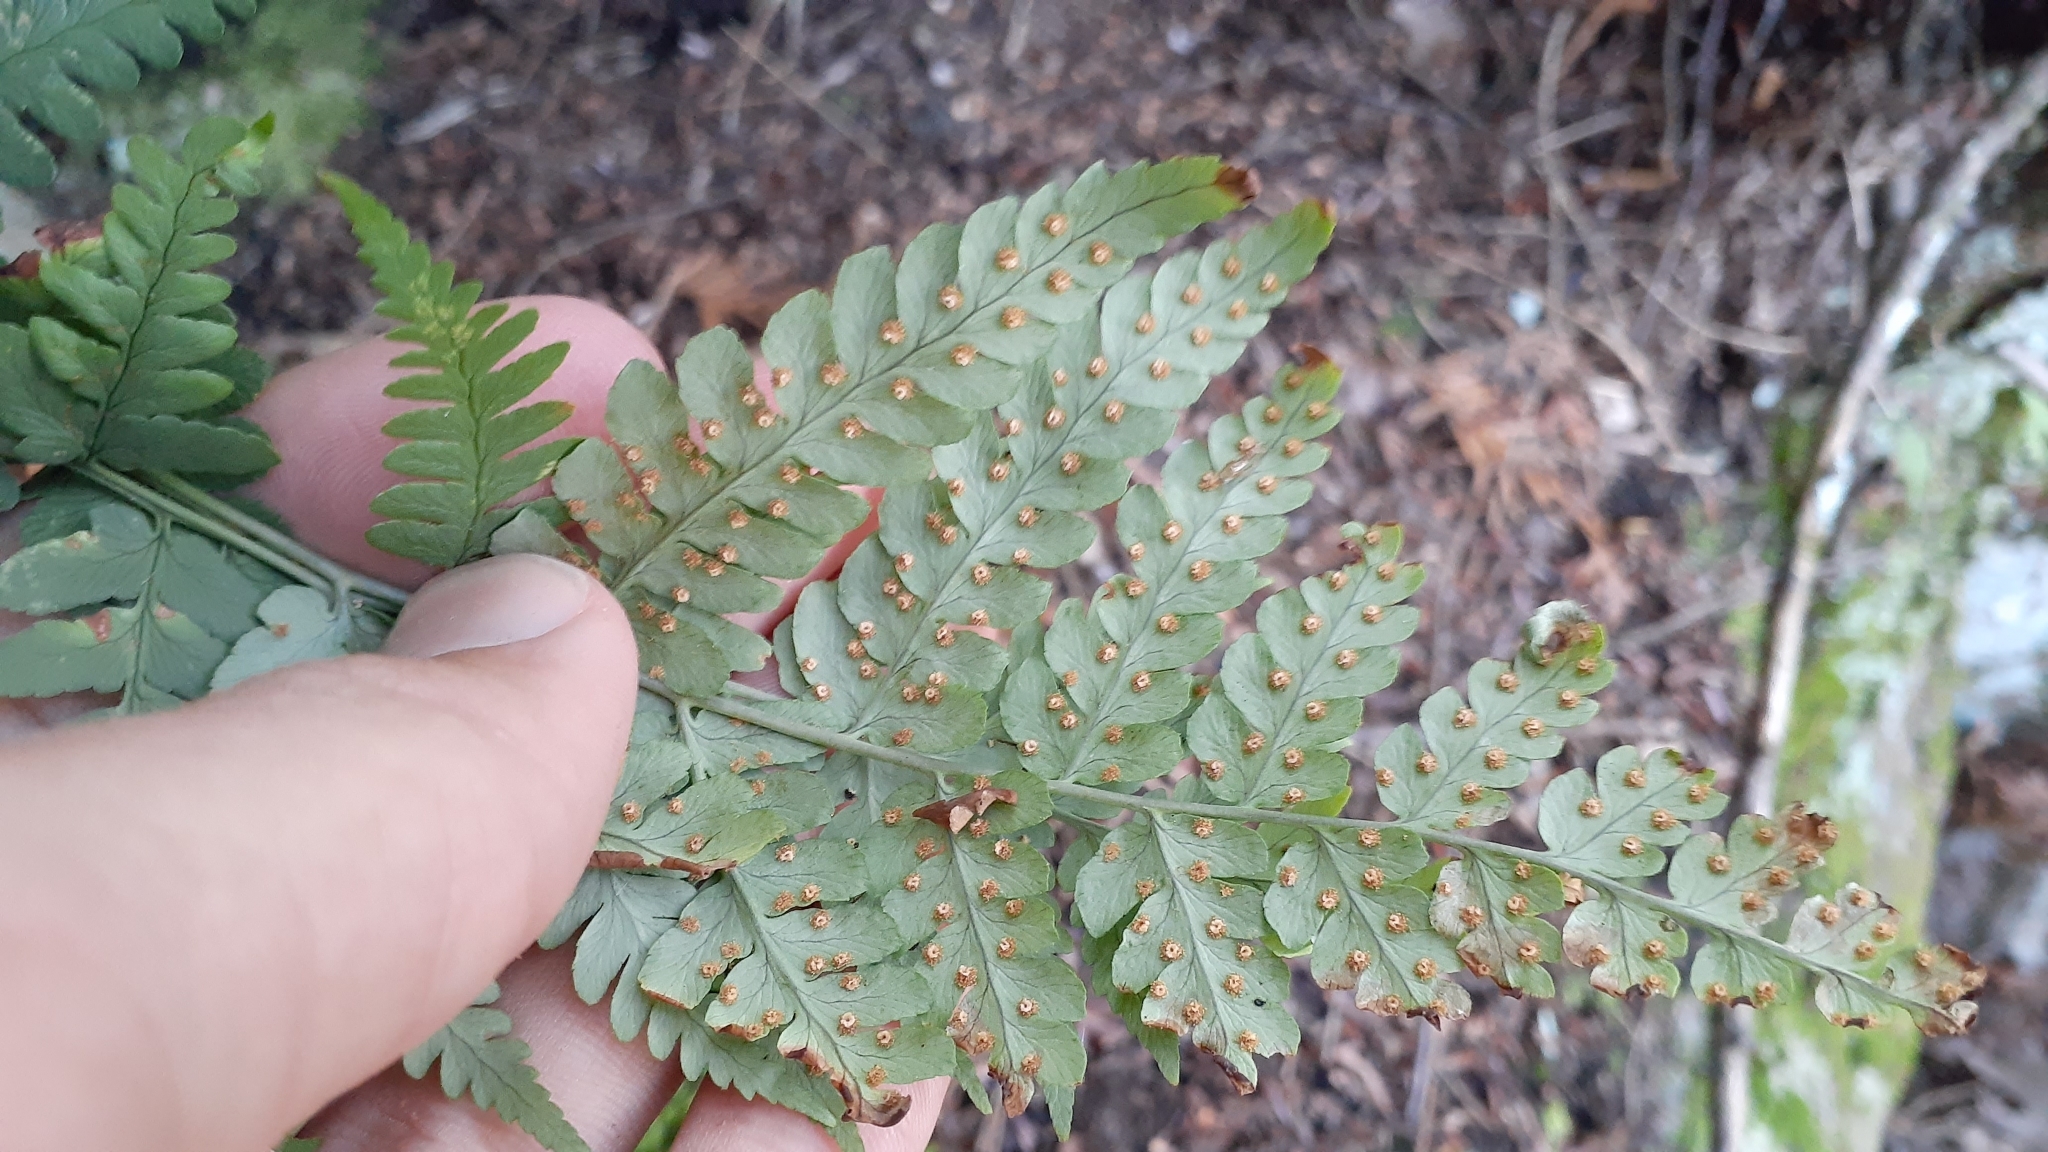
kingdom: Plantae
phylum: Tracheophyta
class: Polypodiopsida
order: Polypodiales
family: Dryopteridaceae
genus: Dryopteris
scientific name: Dryopteris marginalis
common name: Marginal wood fern
